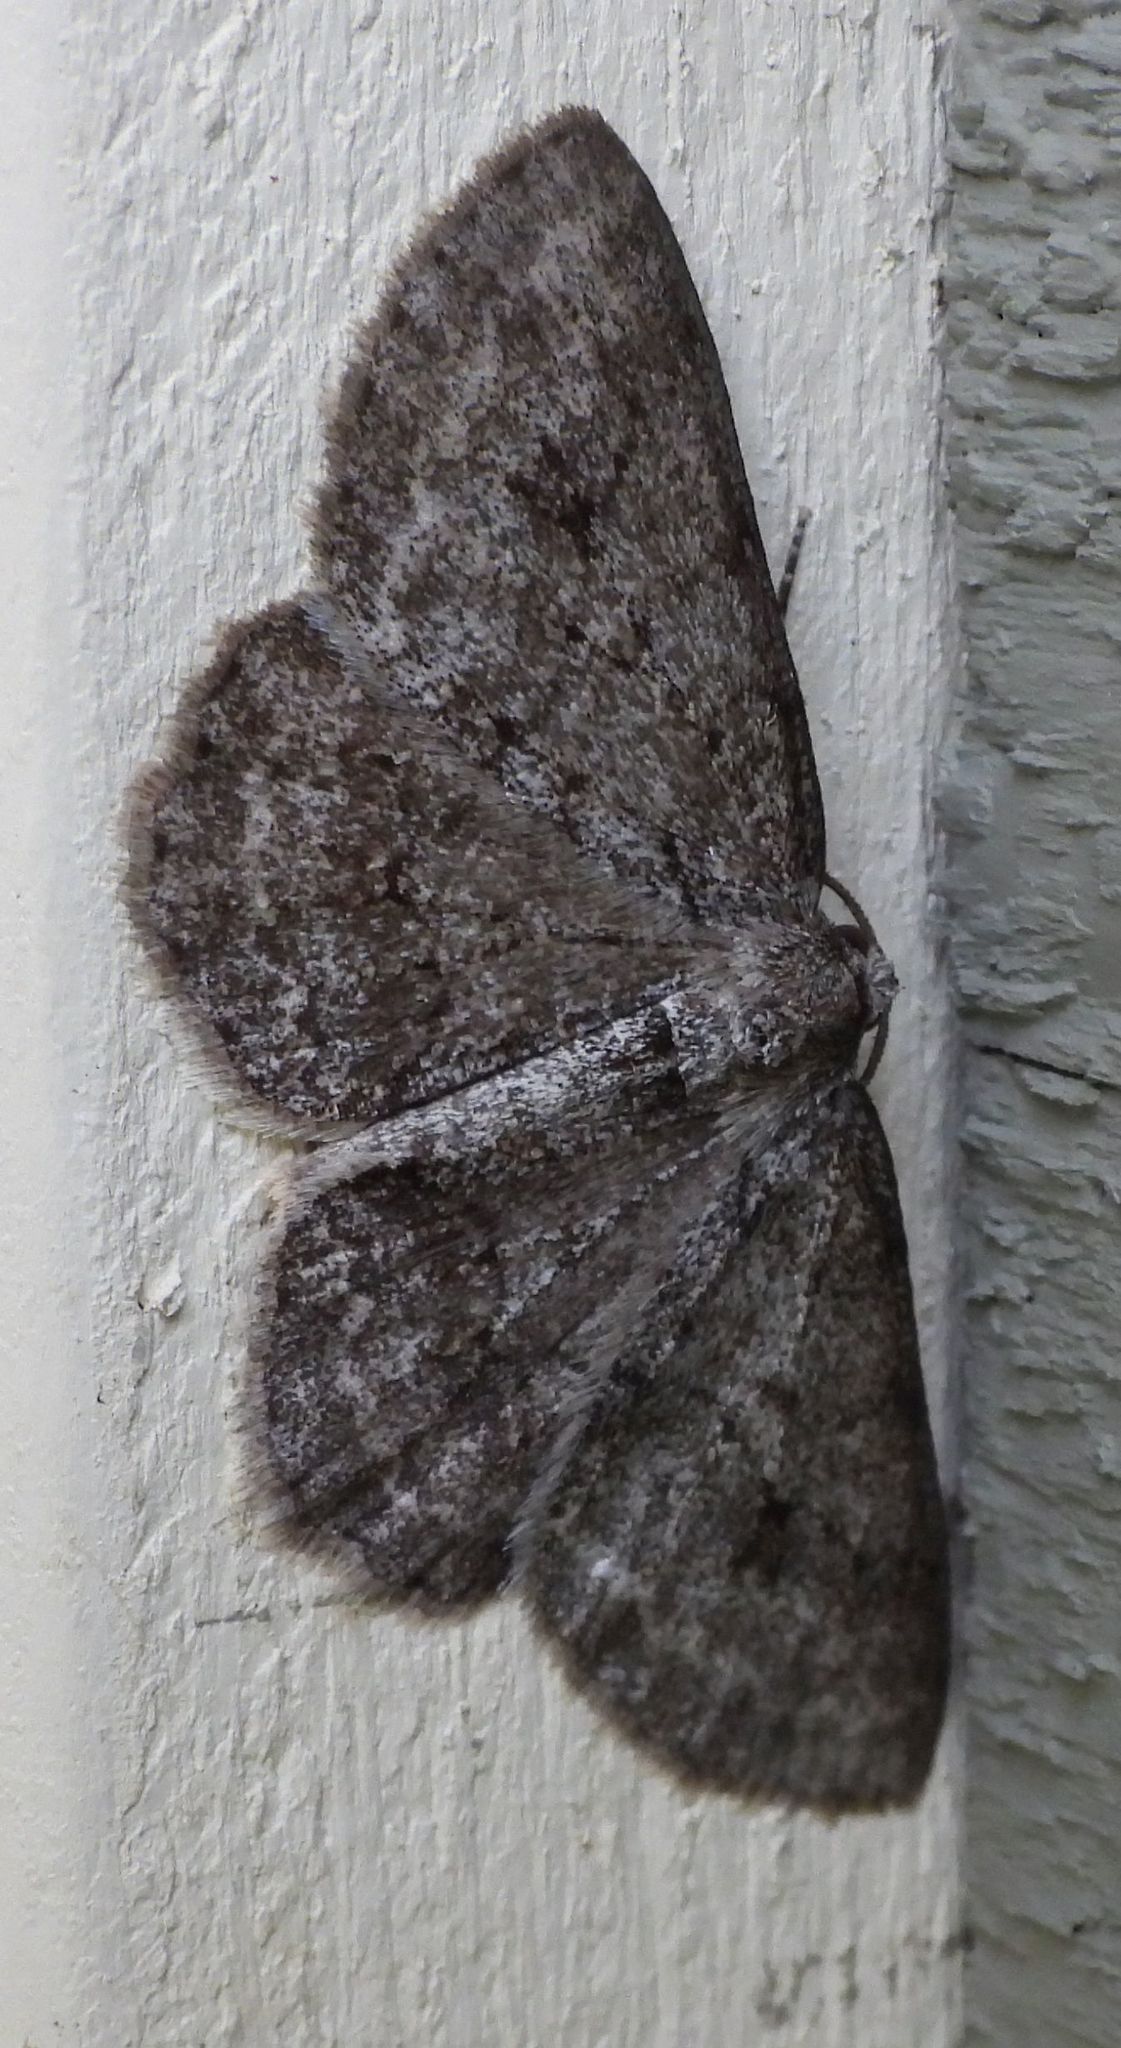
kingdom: Animalia
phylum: Arthropoda
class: Insecta
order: Lepidoptera
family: Geometridae
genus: Ectropis
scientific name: Ectropis crepuscularia
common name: Engrailed
